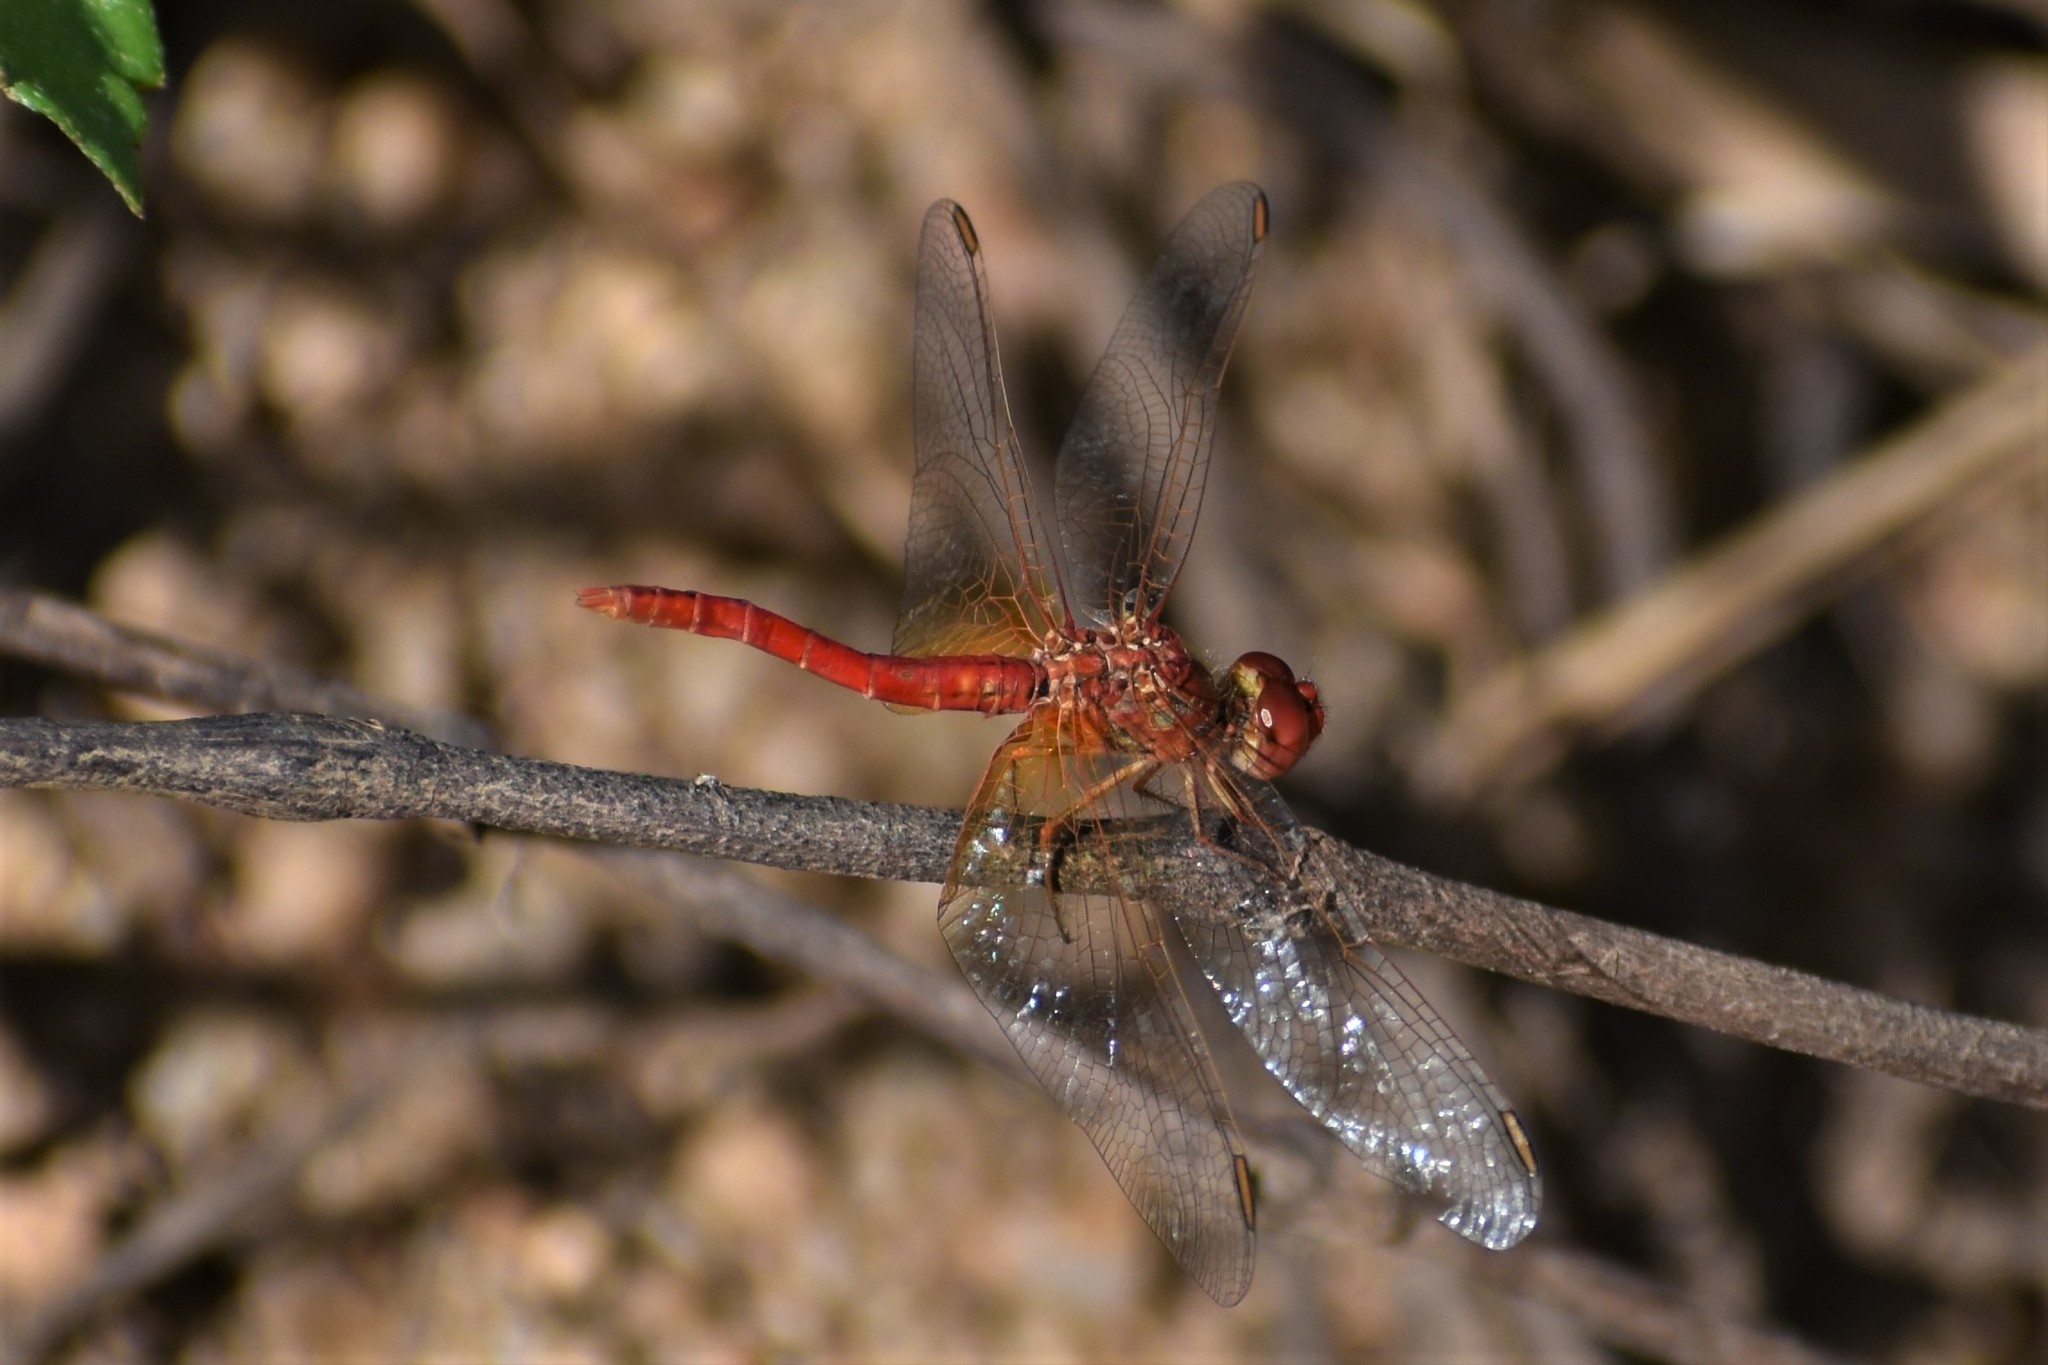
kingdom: Animalia
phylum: Arthropoda
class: Insecta
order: Odonata
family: Libellulidae
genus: Diplacodes
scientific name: Diplacodes haematodes
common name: Scarlet percher
